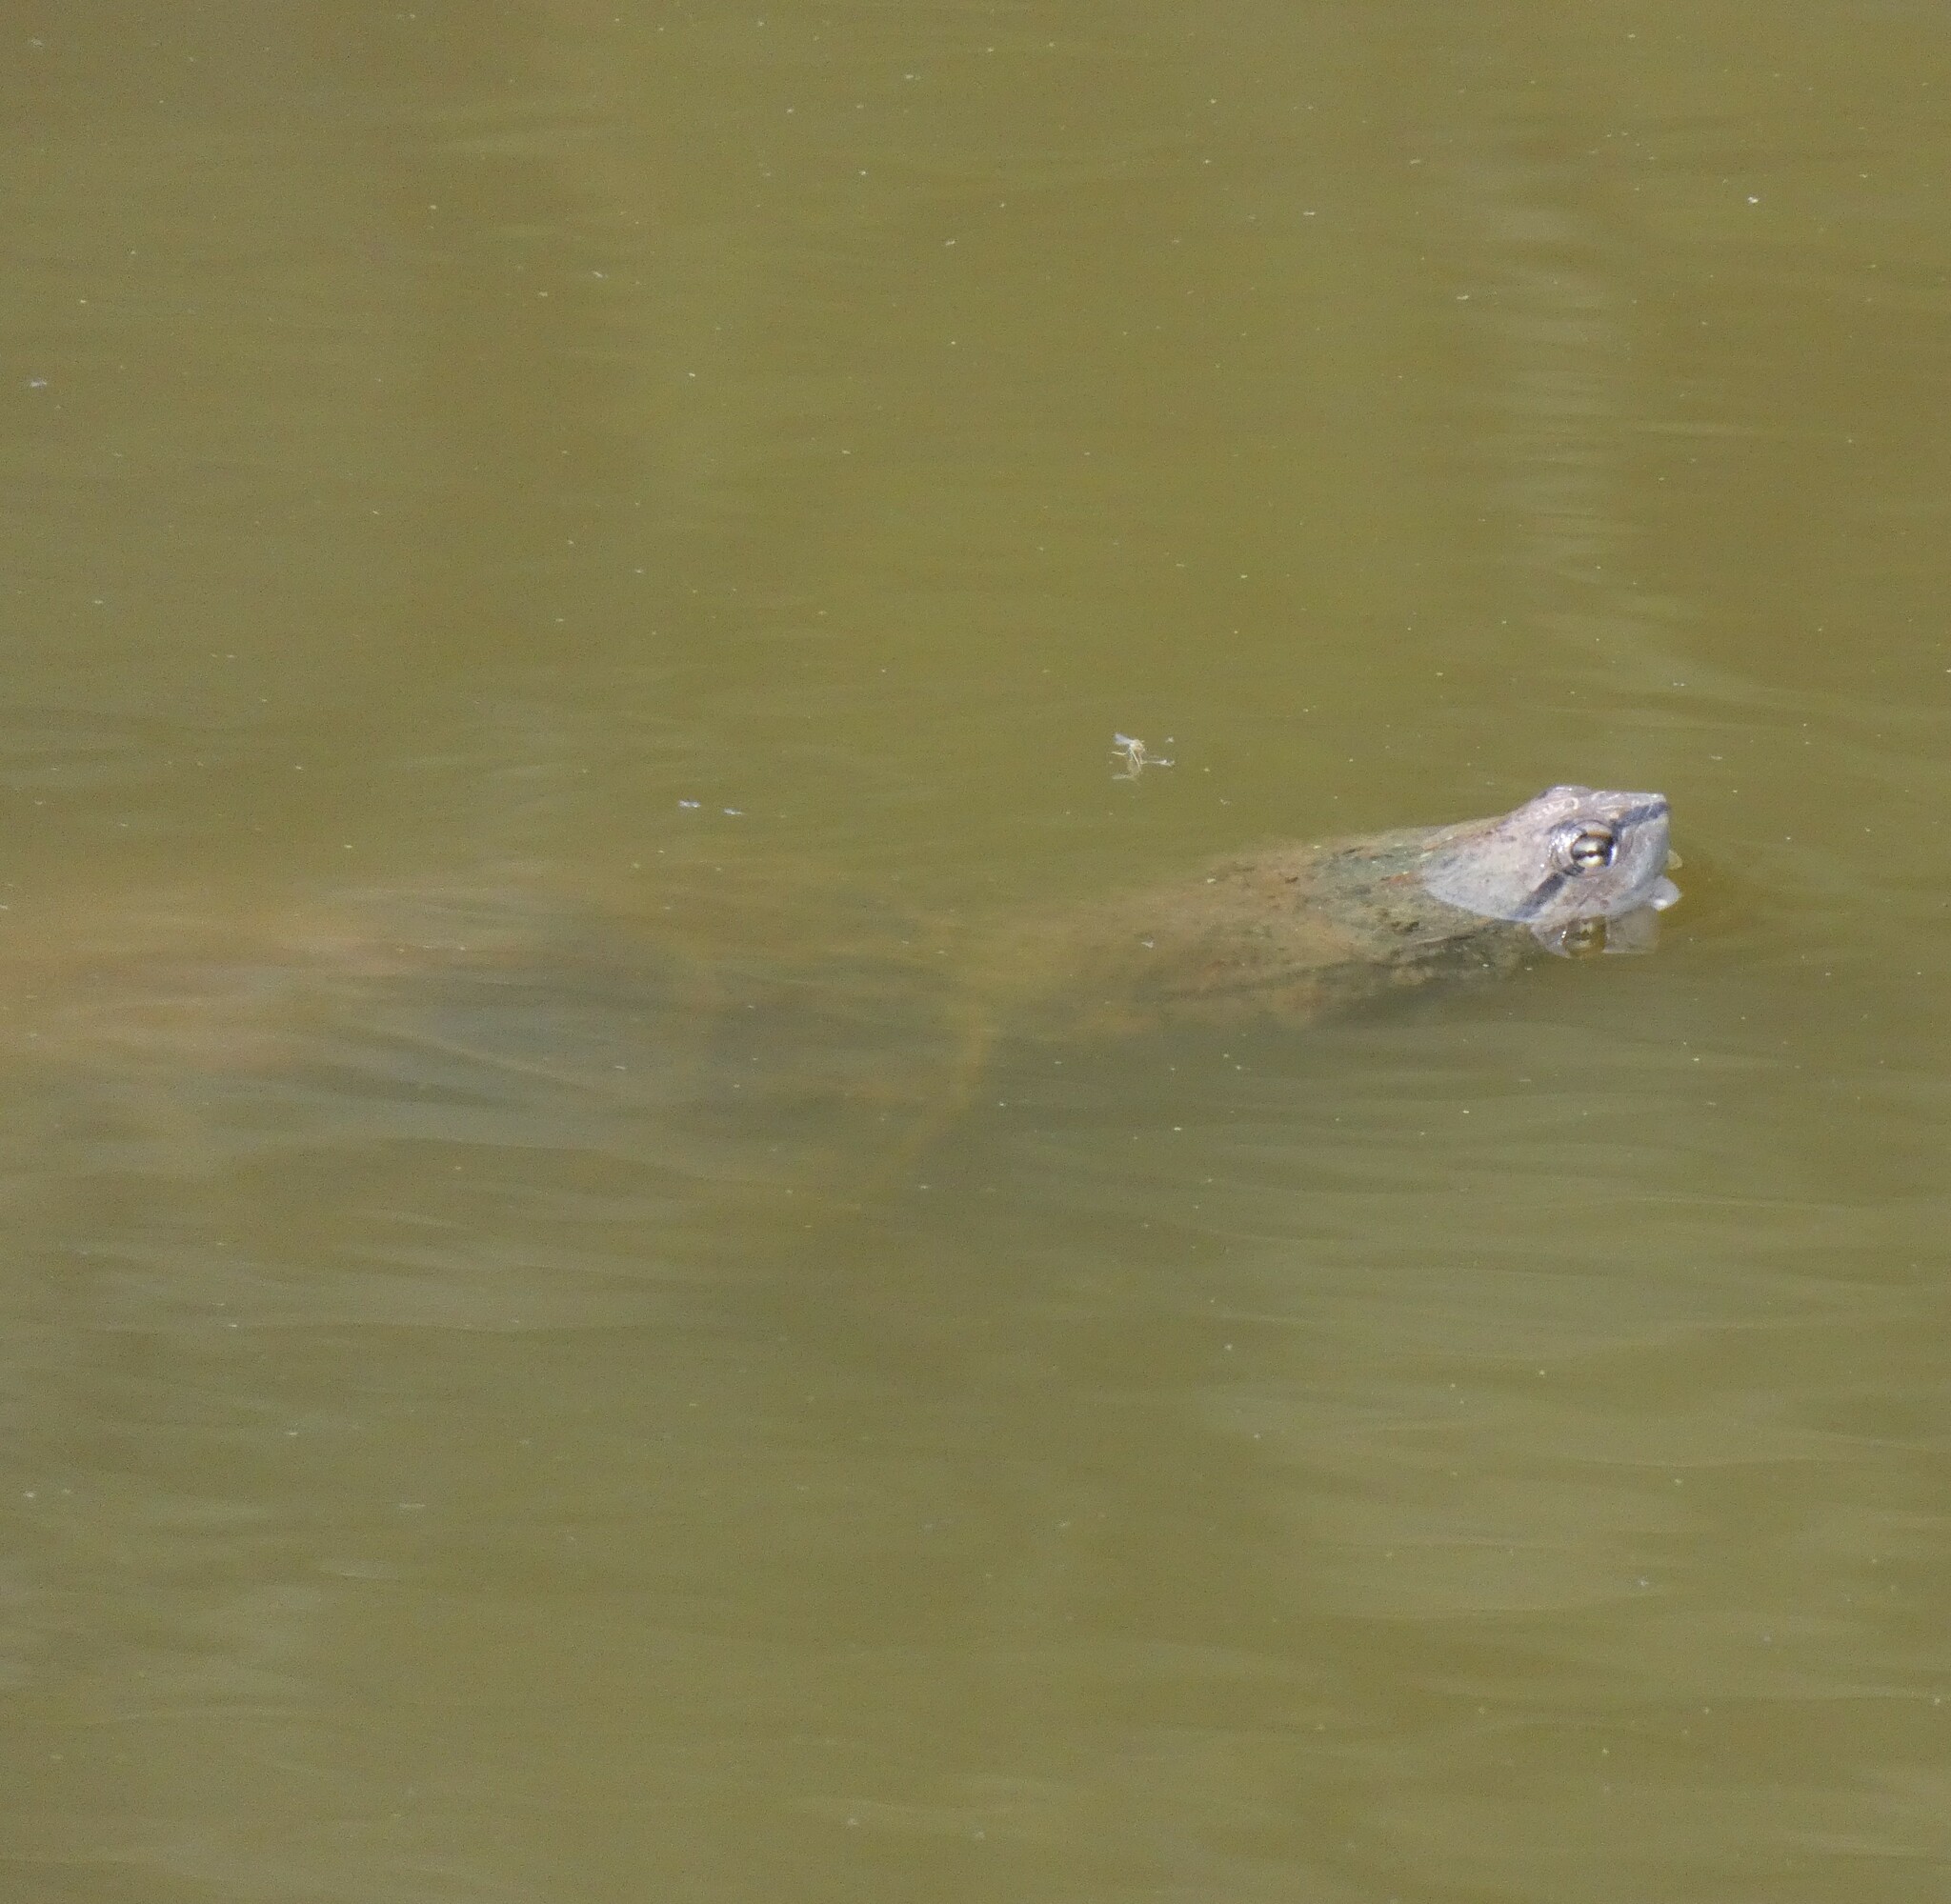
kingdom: Animalia
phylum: Chordata
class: Testudines
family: Chelidae
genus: Phrynops
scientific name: Phrynops geoffroanus
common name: Side-necked turtle of geoffroy
